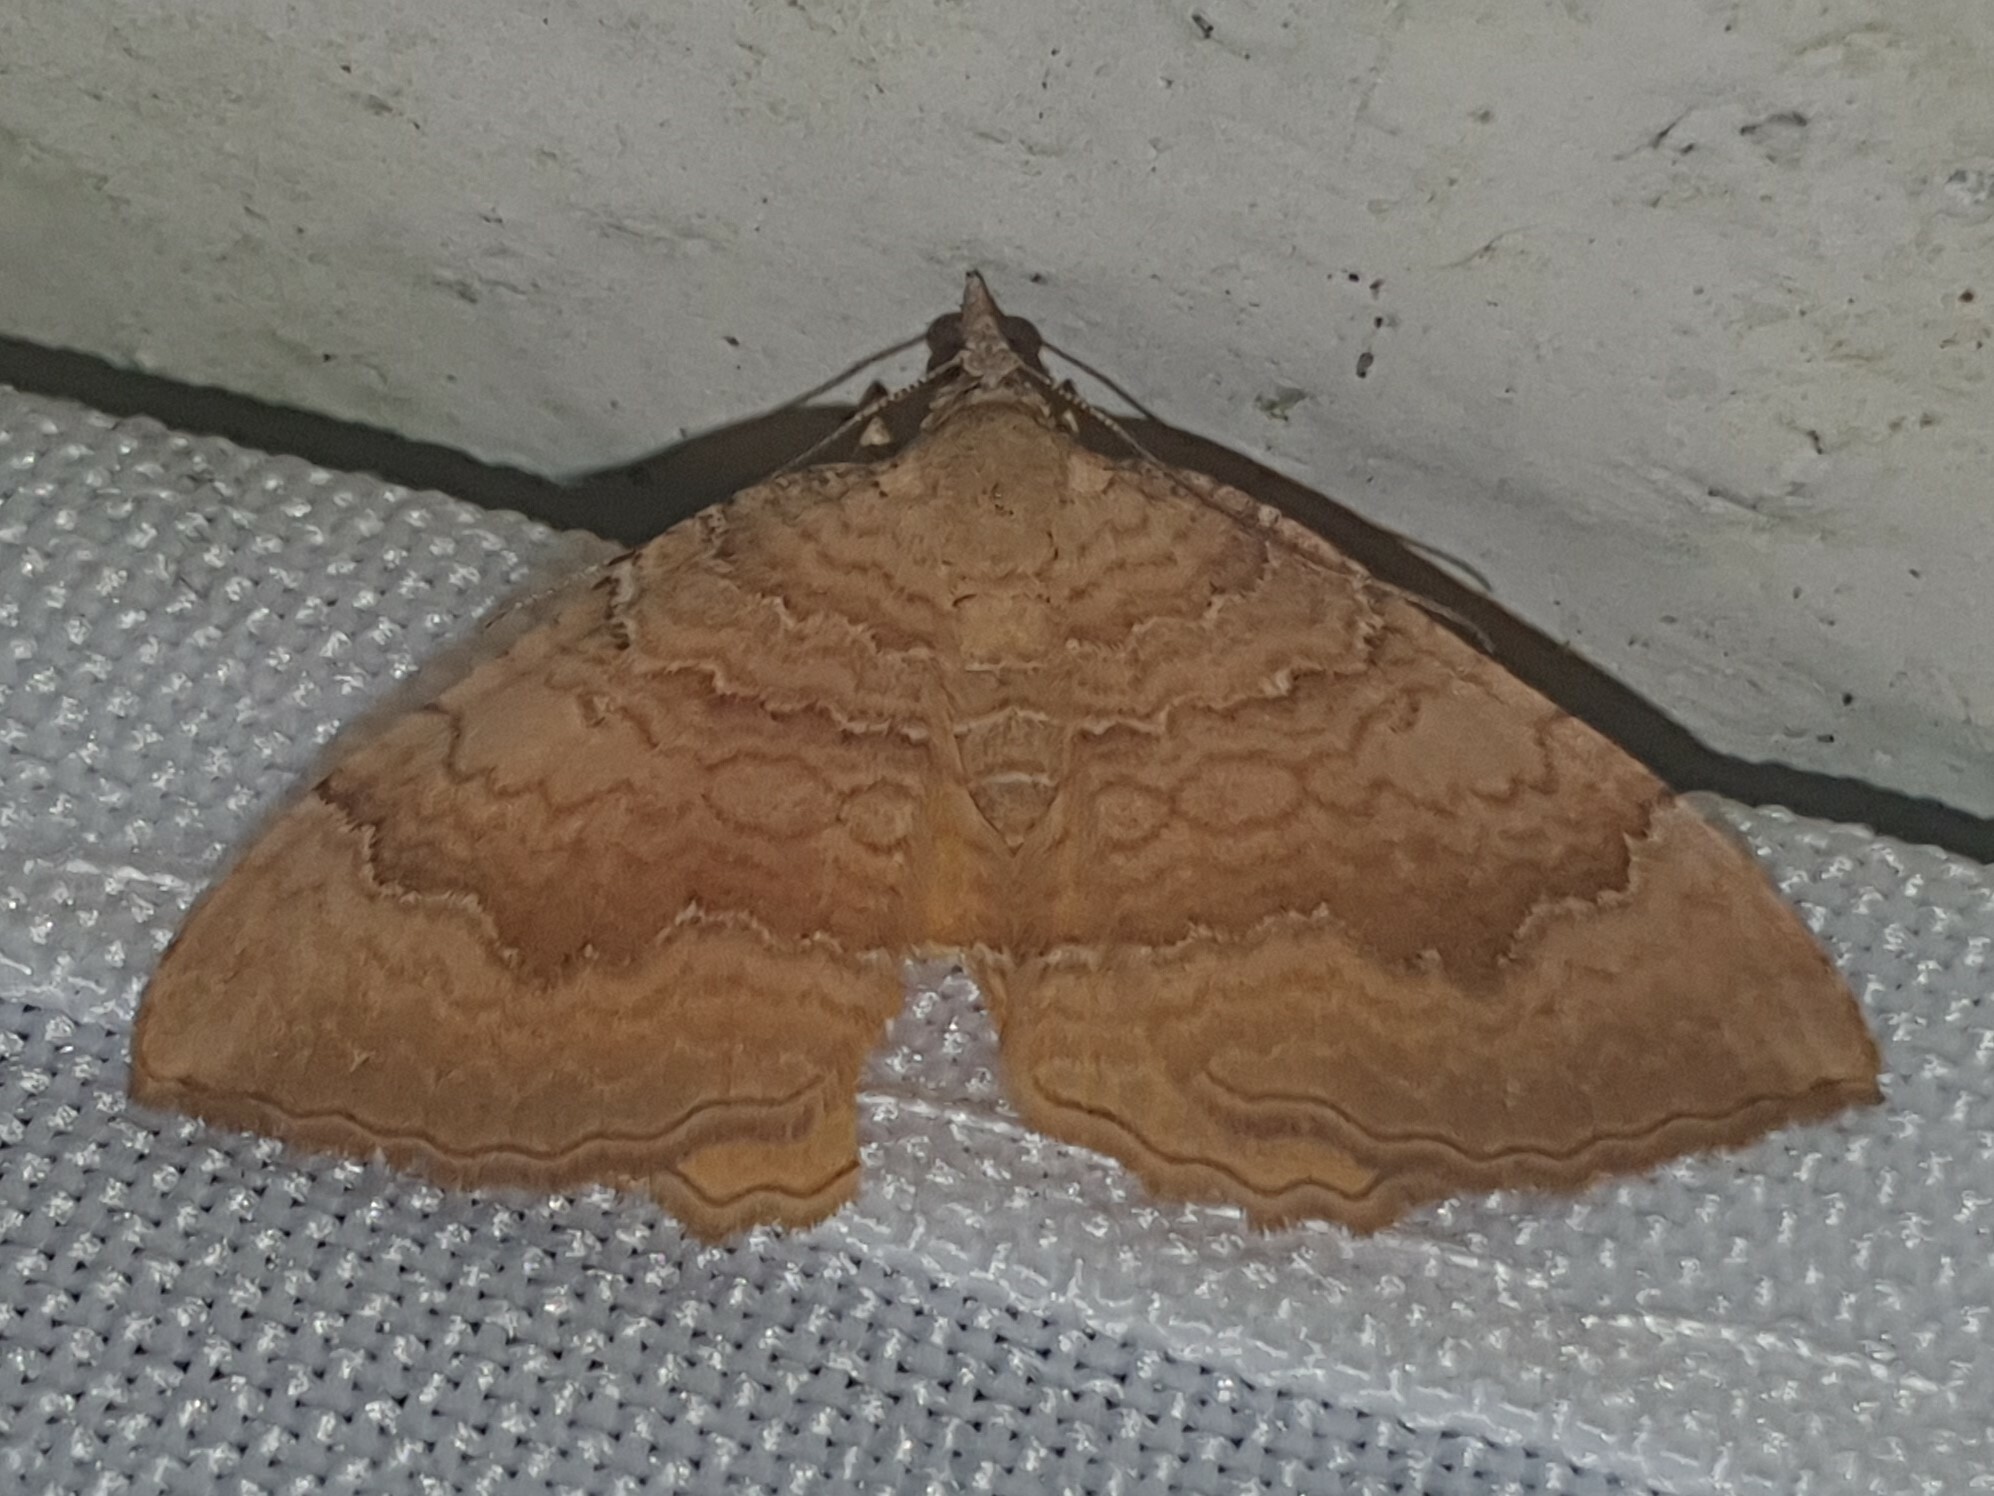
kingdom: Animalia
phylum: Arthropoda
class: Insecta
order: Lepidoptera
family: Geometridae
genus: Camptogramma
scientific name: Camptogramma bilineata
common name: Yellow shell
